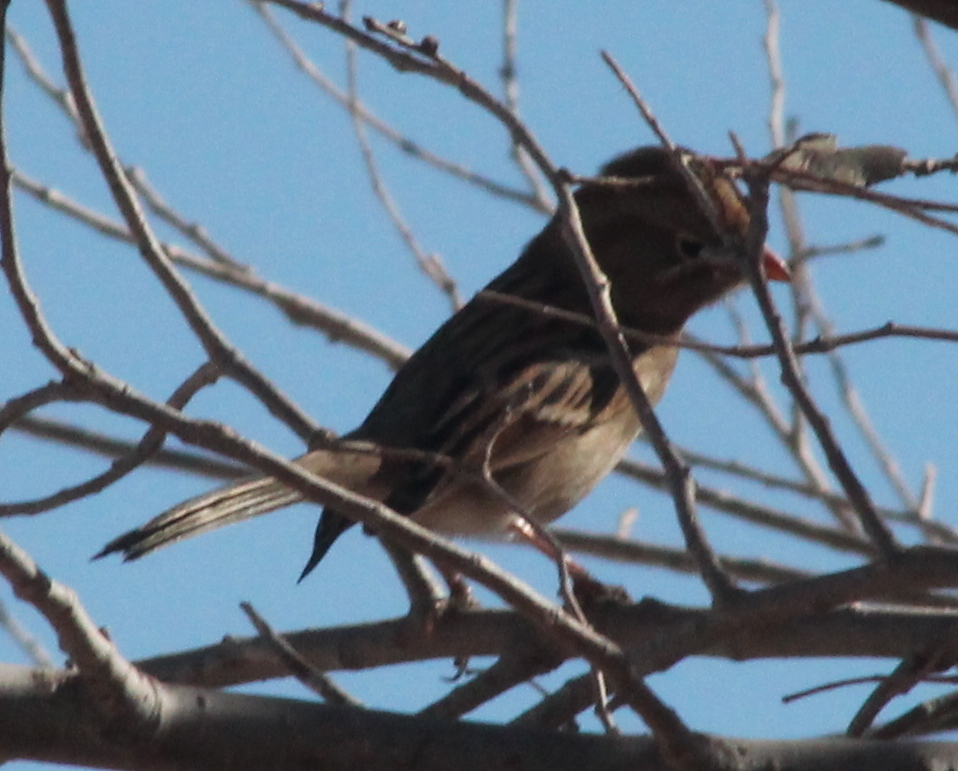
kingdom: Animalia
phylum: Chordata
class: Aves
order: Passeriformes
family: Passerellidae
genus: Spizella
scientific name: Spizella pusilla
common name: Field sparrow
